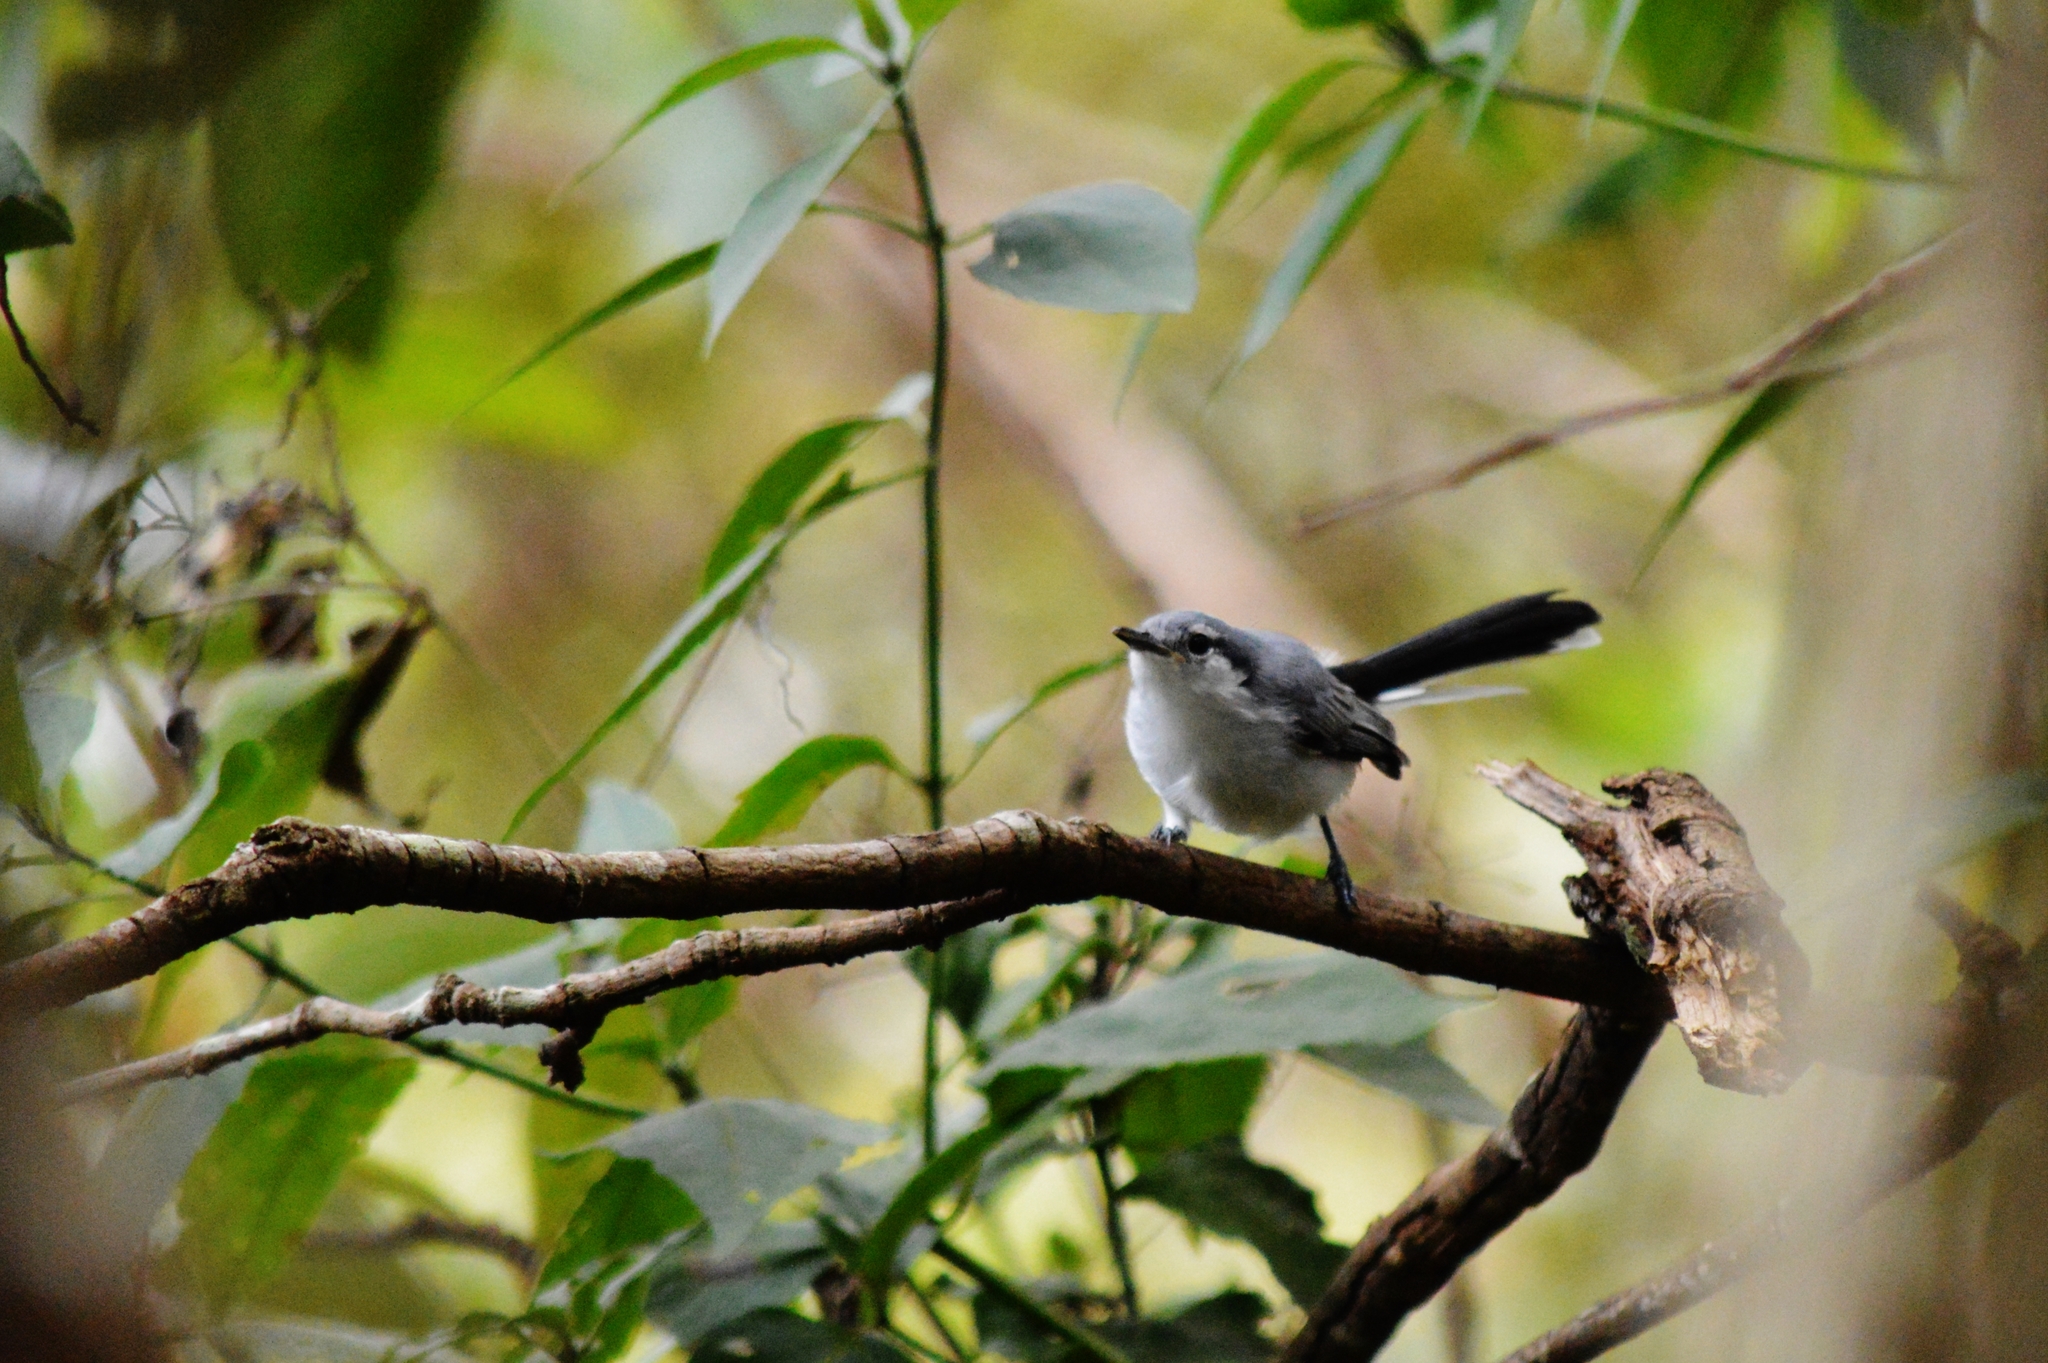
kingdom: Animalia
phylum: Chordata
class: Aves
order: Passeriformes
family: Polioptilidae
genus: Polioptila
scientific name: Polioptila dumicola
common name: Masked gnatcatcher
